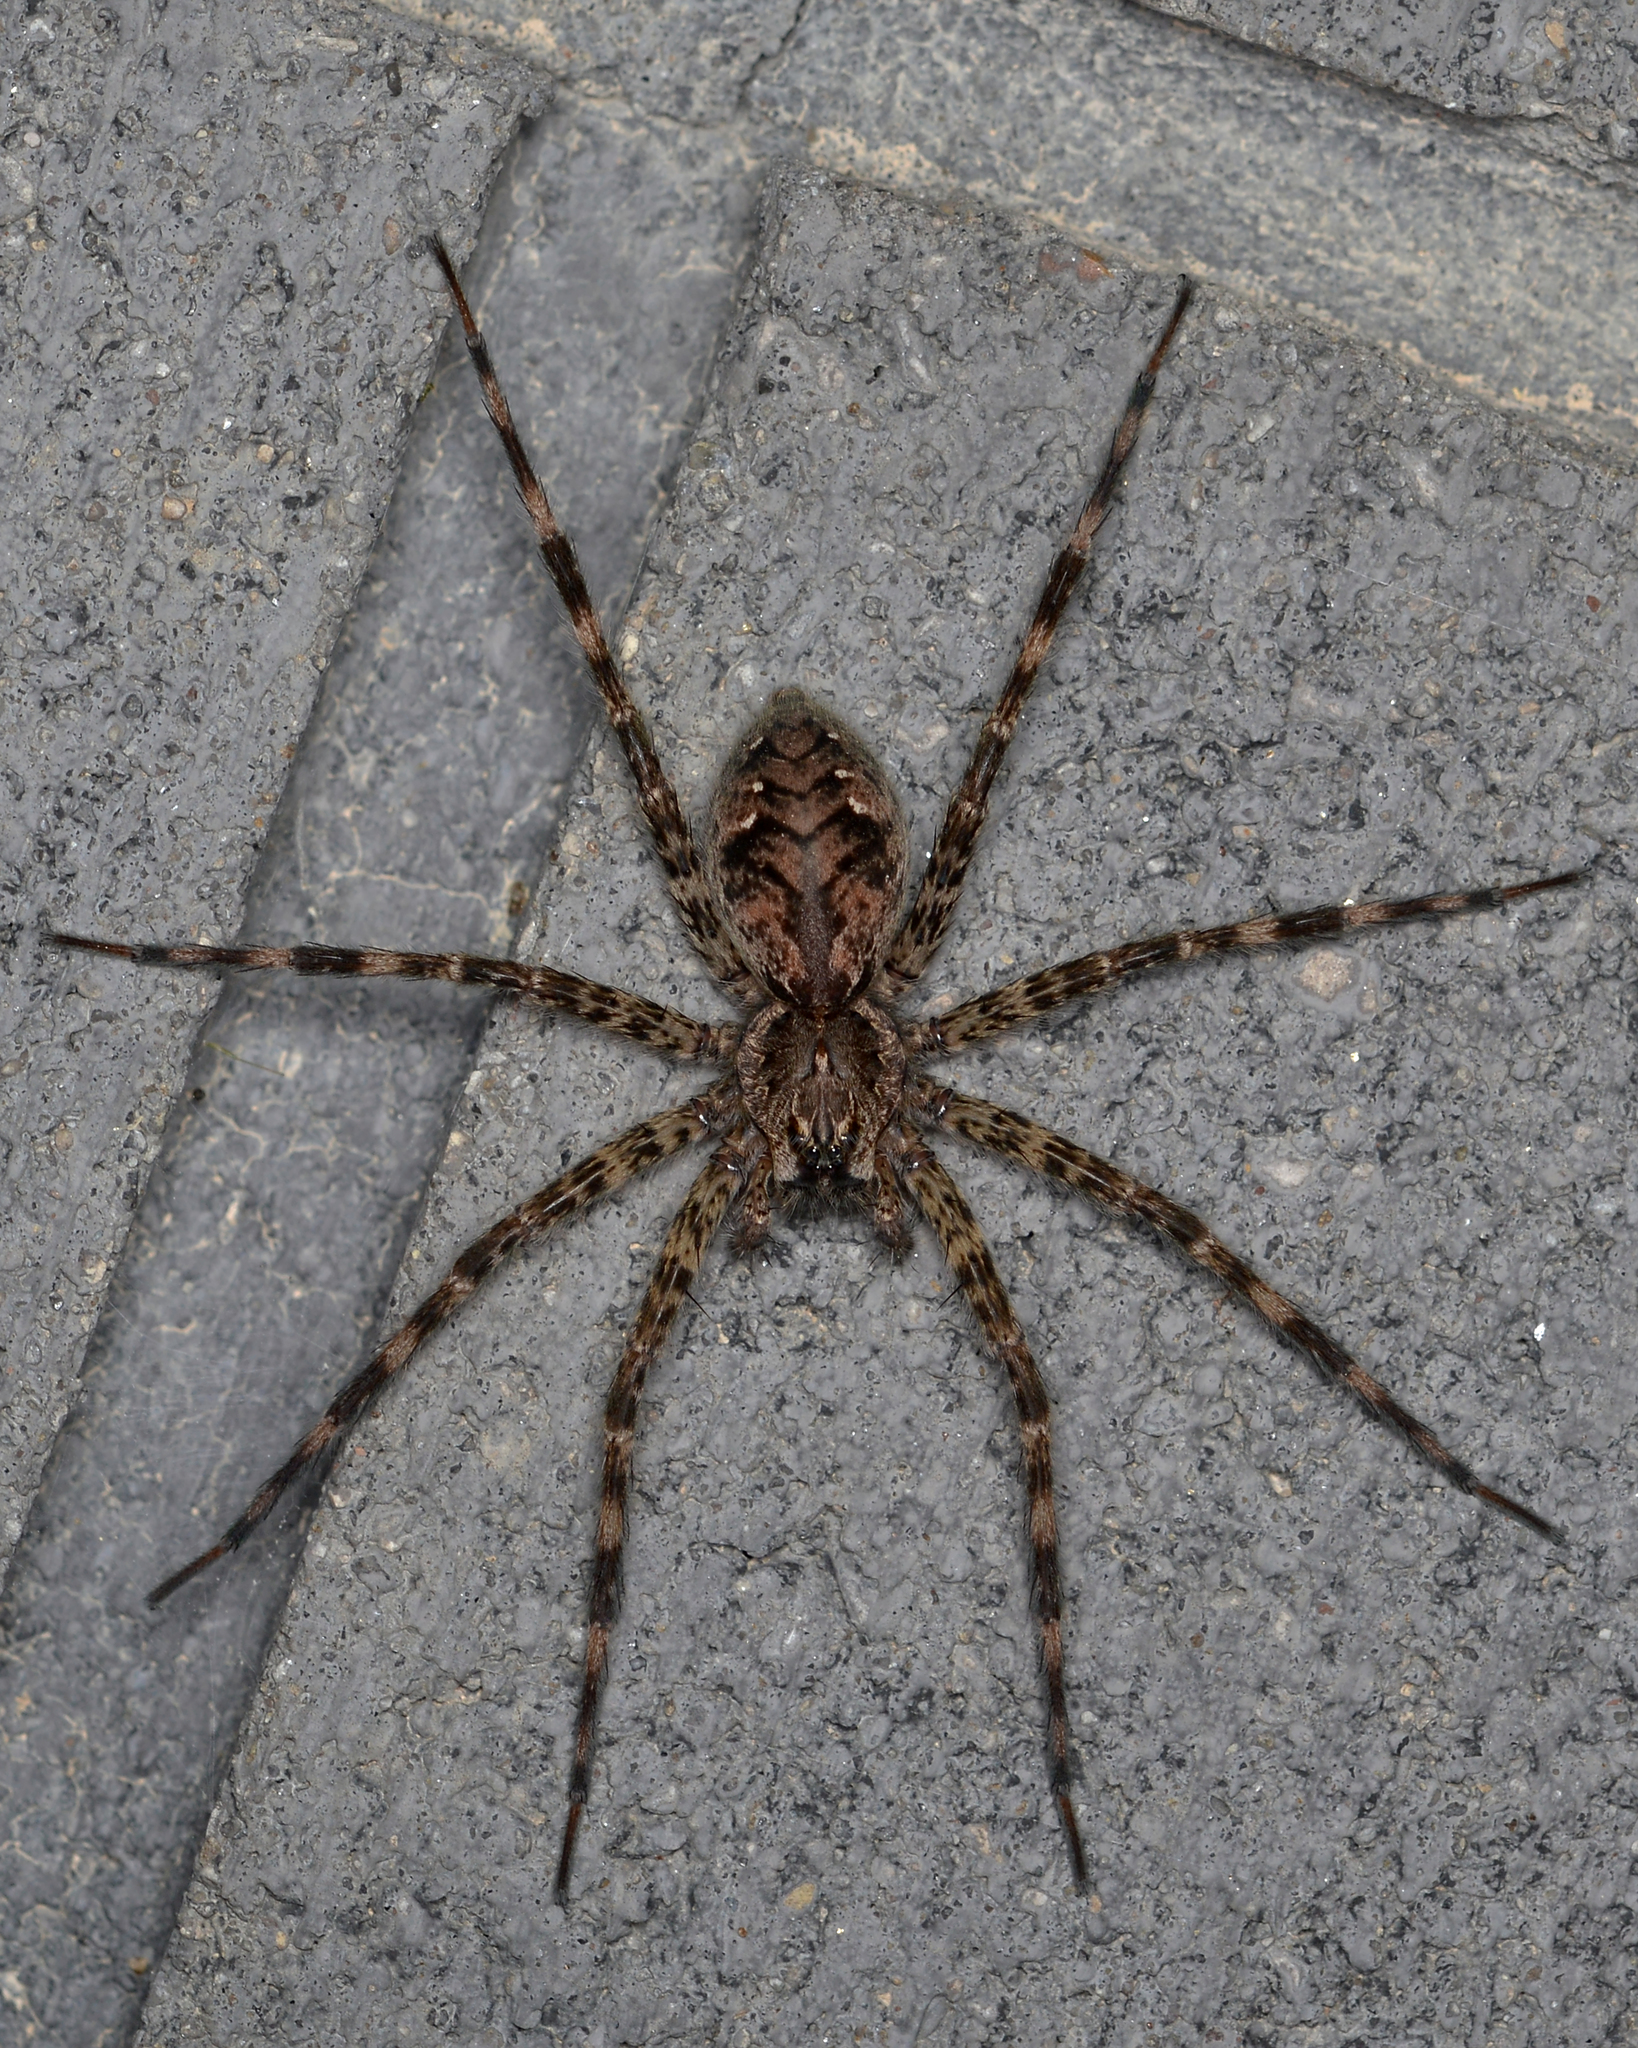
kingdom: Animalia
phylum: Arthropoda
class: Arachnida
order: Araneae
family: Pisauridae
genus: Dolomedes
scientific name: Dolomedes tenebrosus
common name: Dark fishing spider
